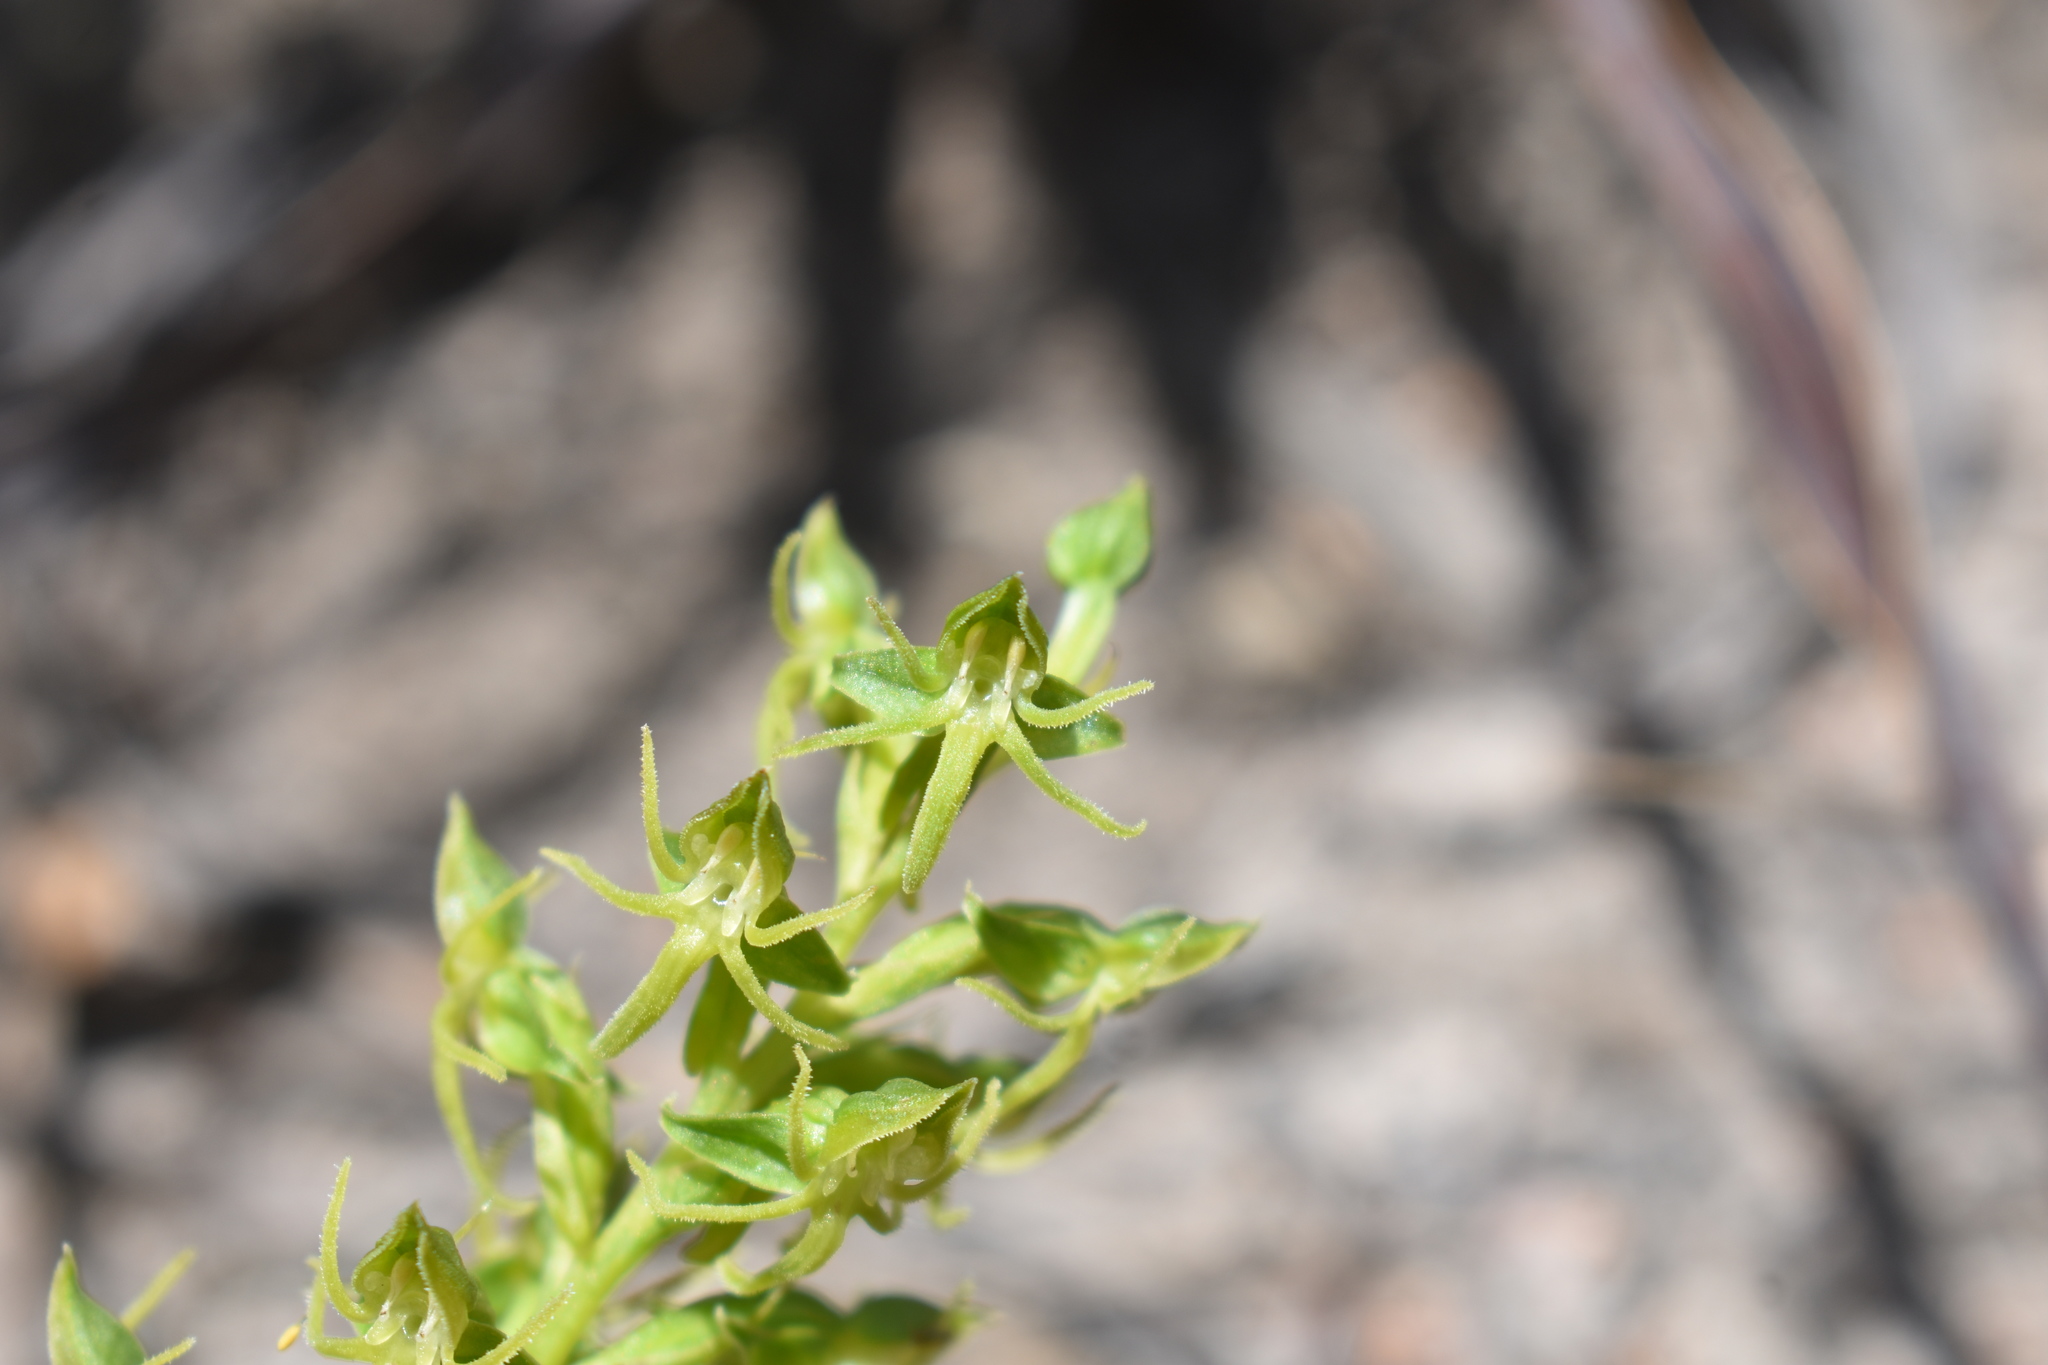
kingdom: Plantae
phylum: Tracheophyta
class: Liliopsida
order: Asparagales
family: Orchidaceae
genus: Habenaria
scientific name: Habenaria lithophila
